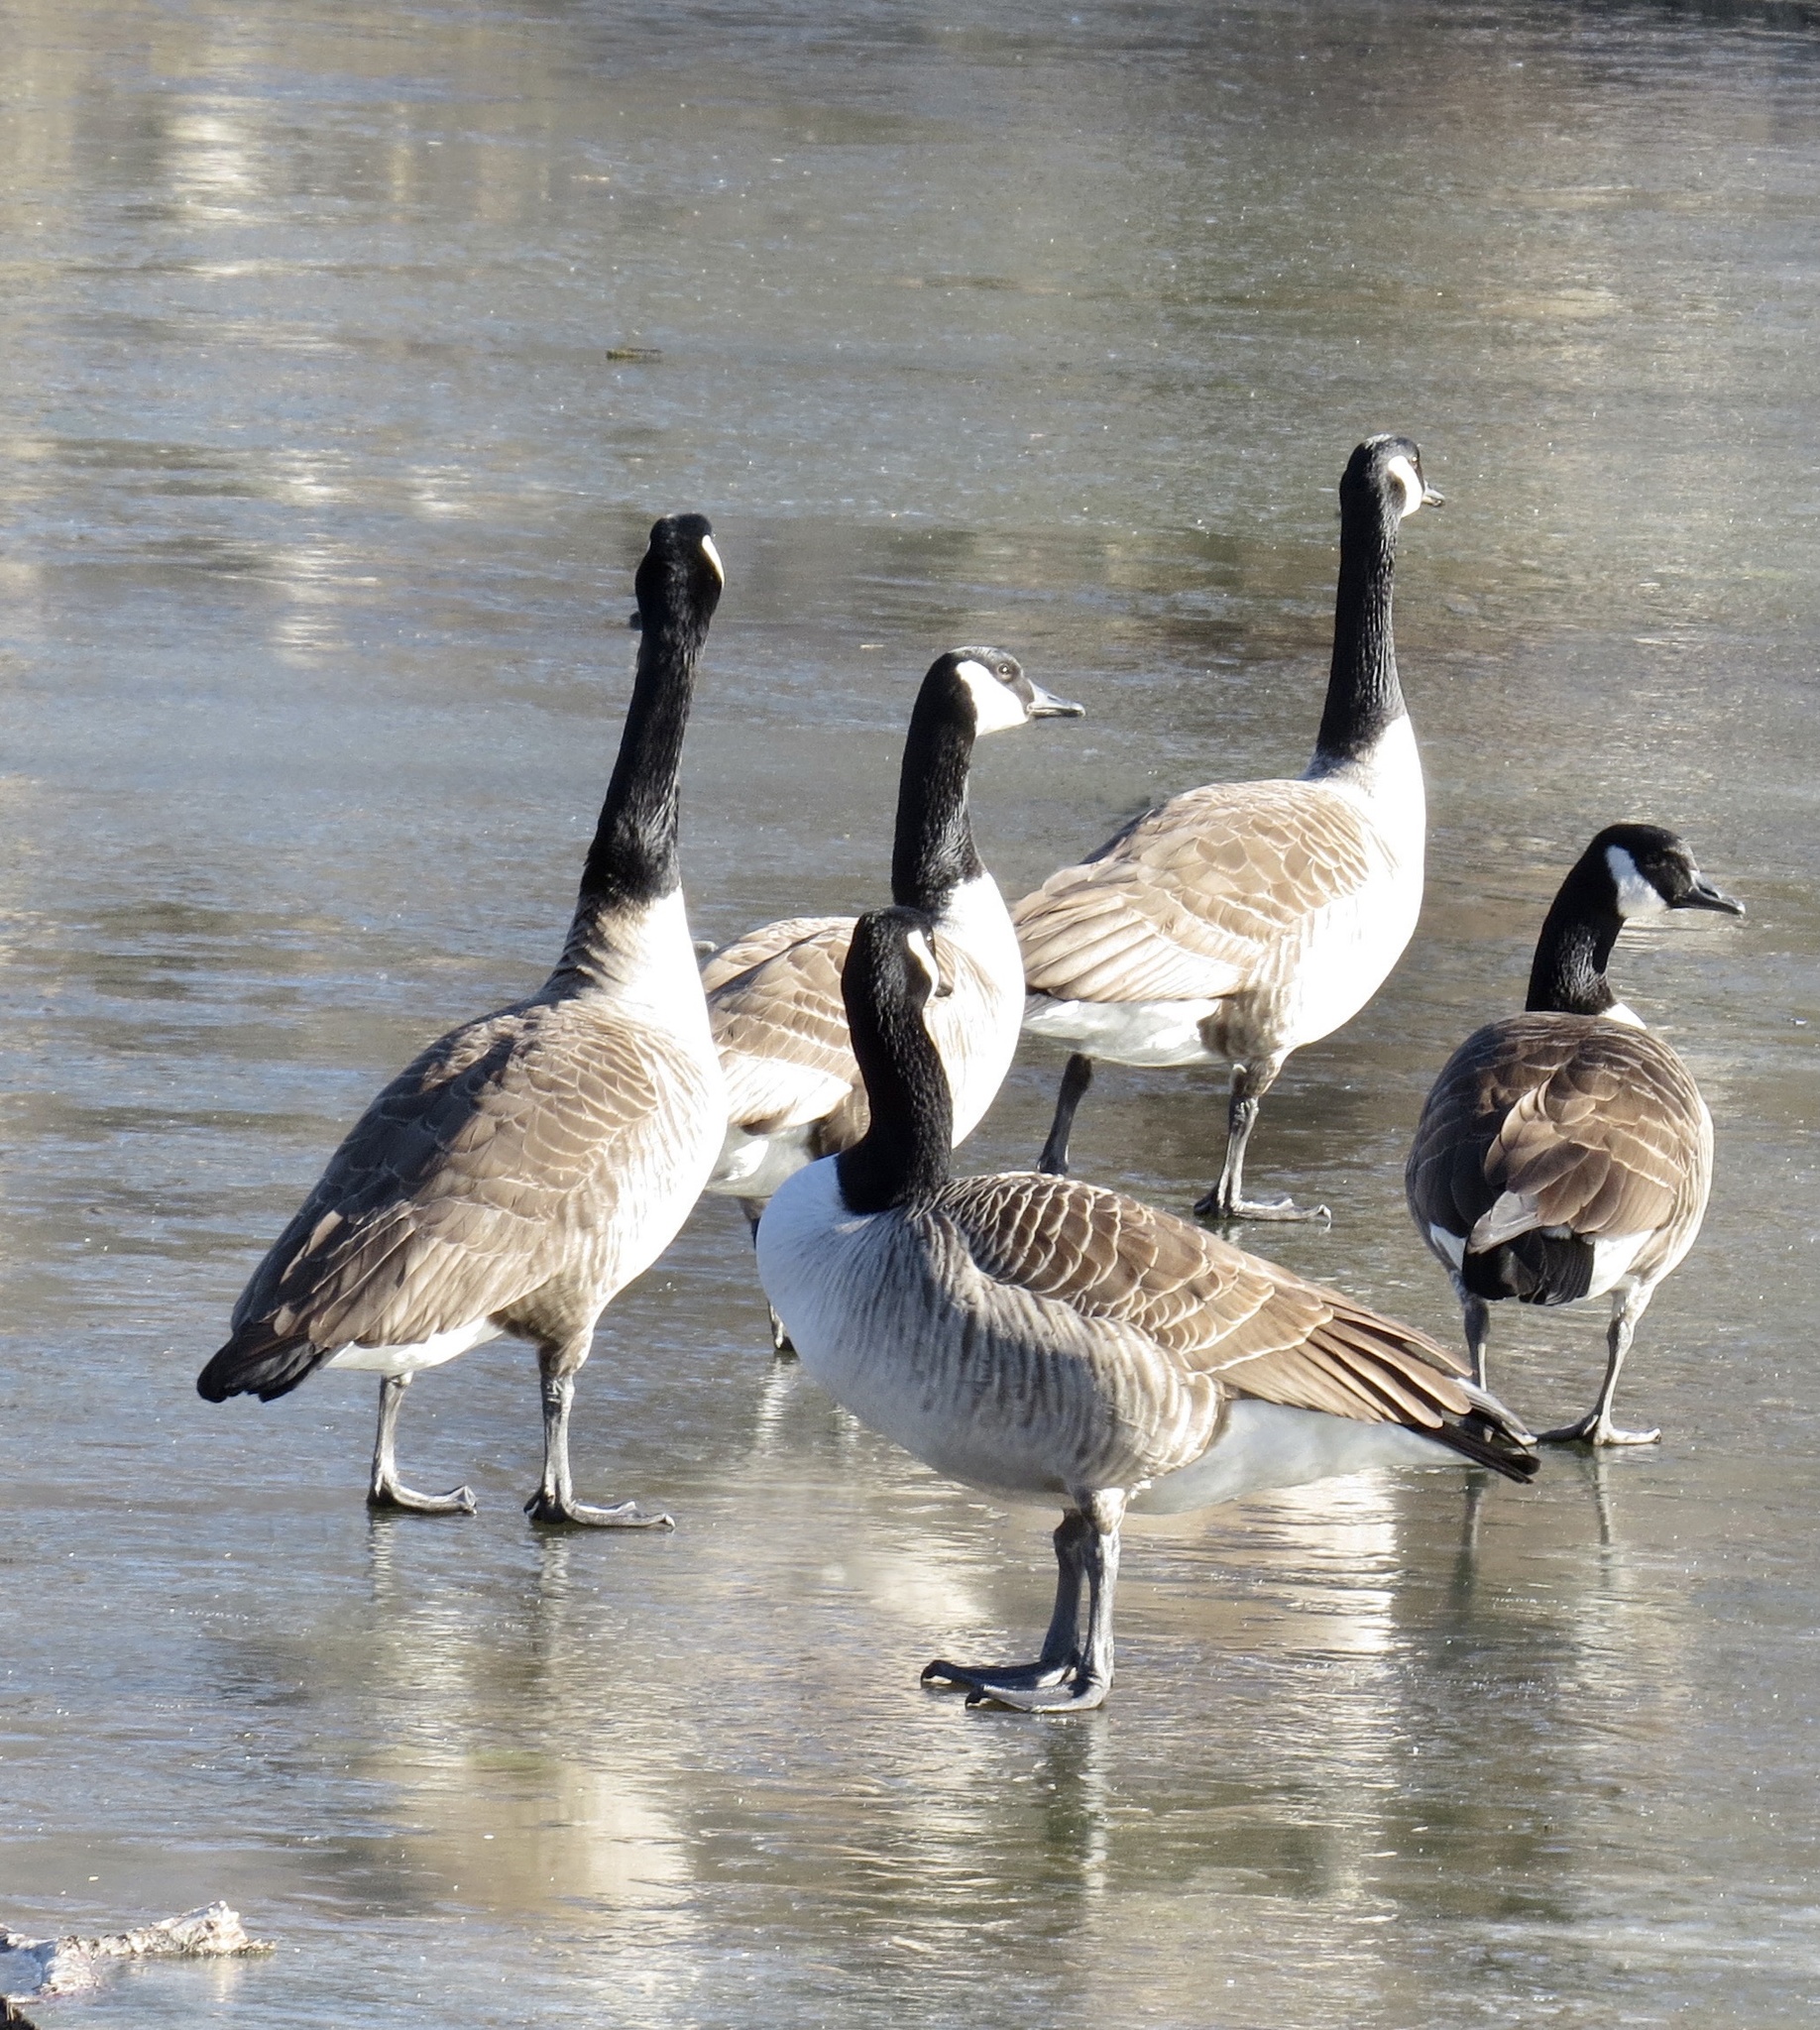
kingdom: Animalia
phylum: Chordata
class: Aves
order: Anseriformes
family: Anatidae
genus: Branta
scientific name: Branta canadensis
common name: Canada goose
